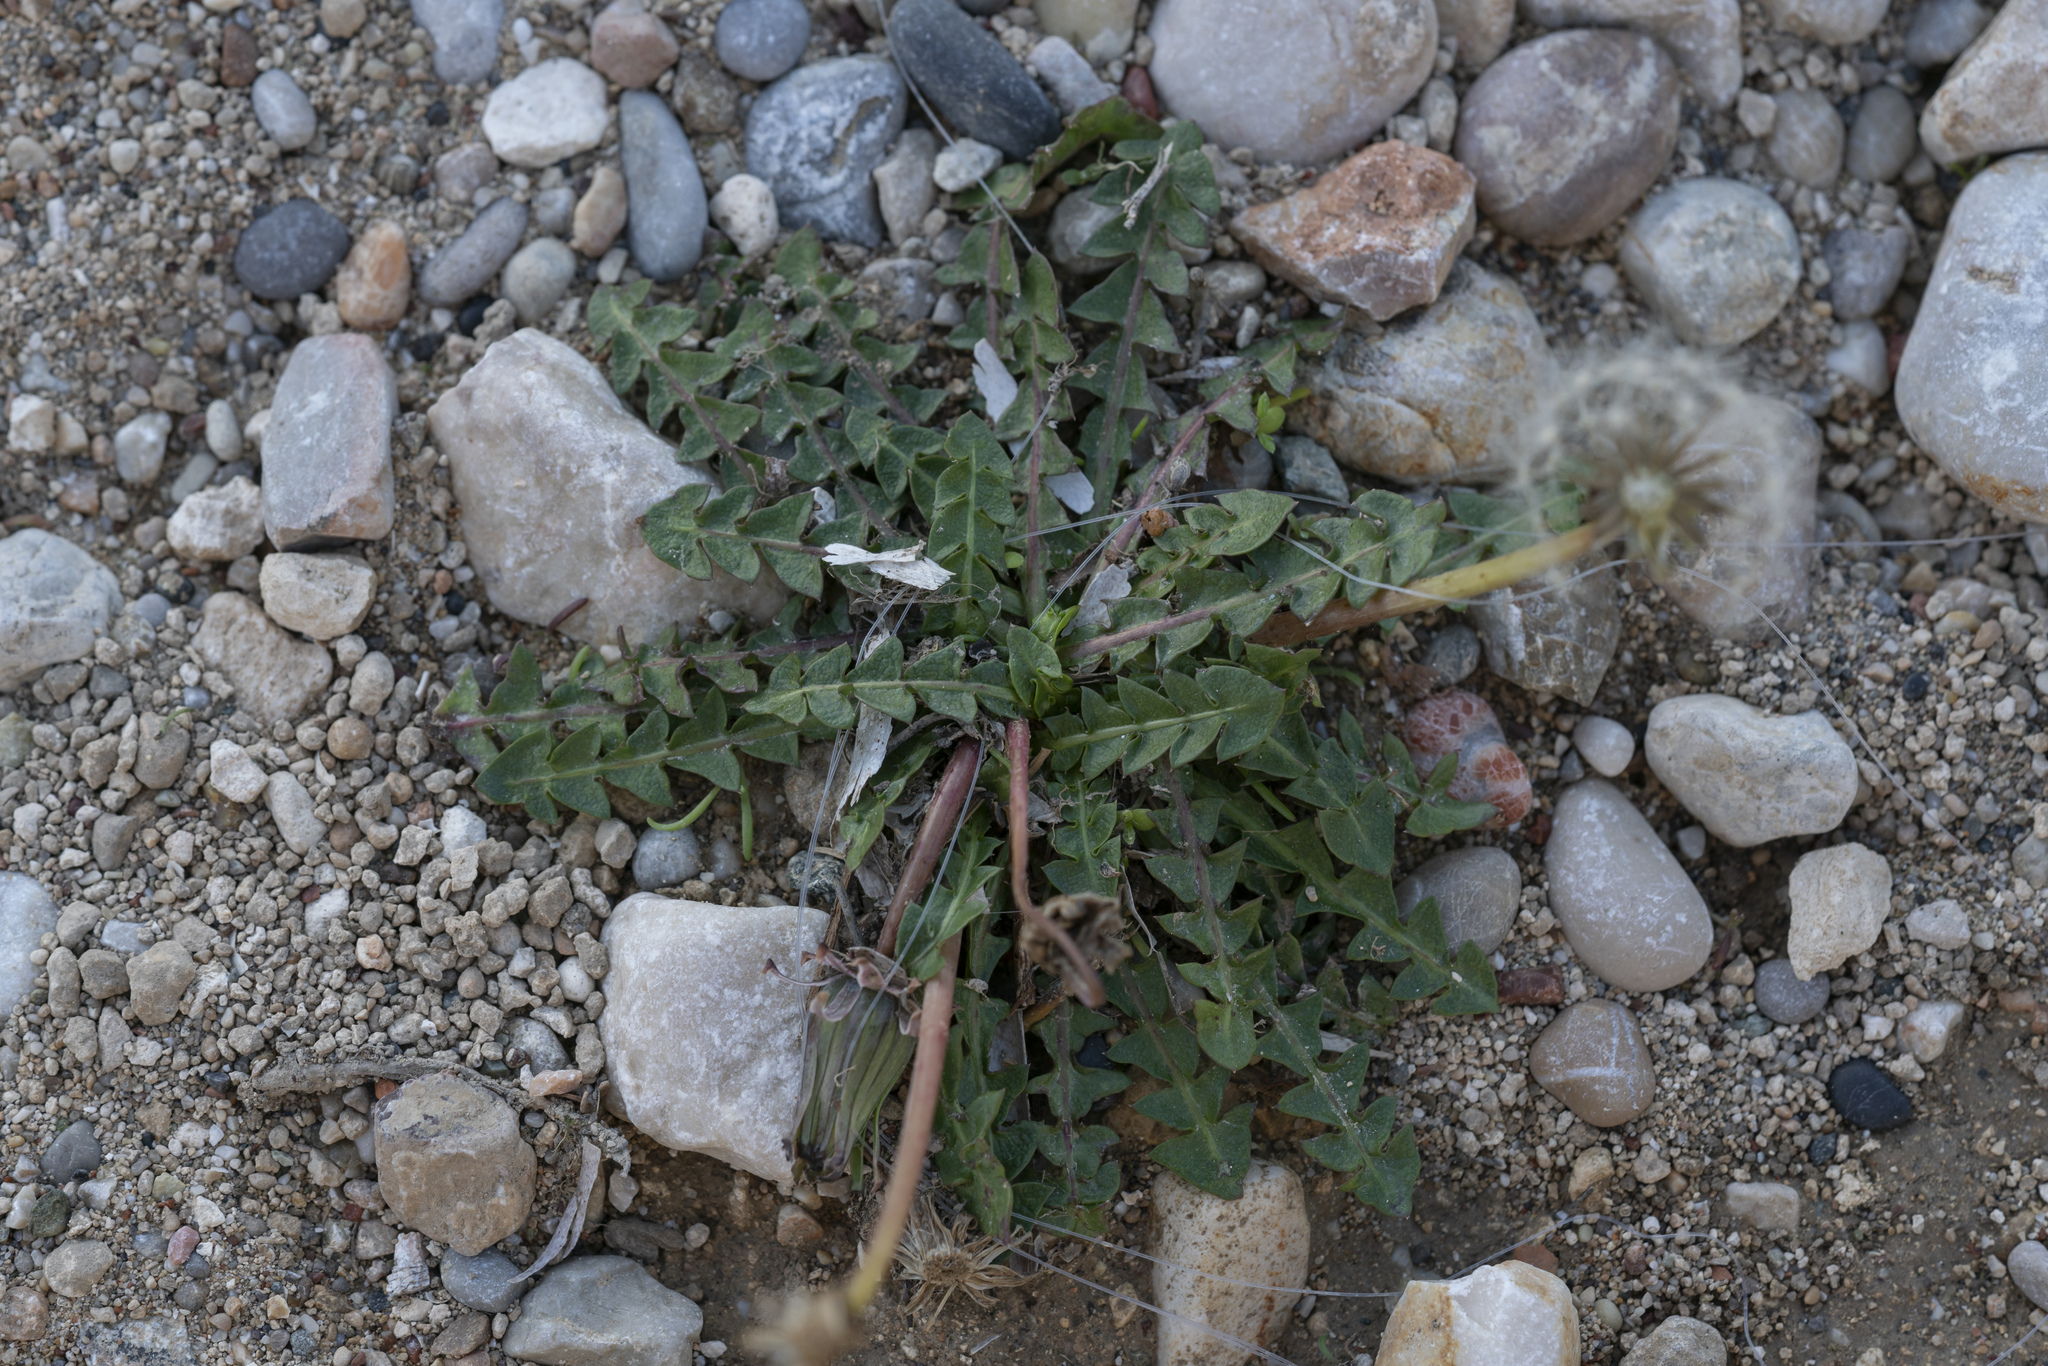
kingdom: Plantae
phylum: Tracheophyta
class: Magnoliopsida
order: Asterales
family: Asteraceae
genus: Taraxacum
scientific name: Taraxacum
